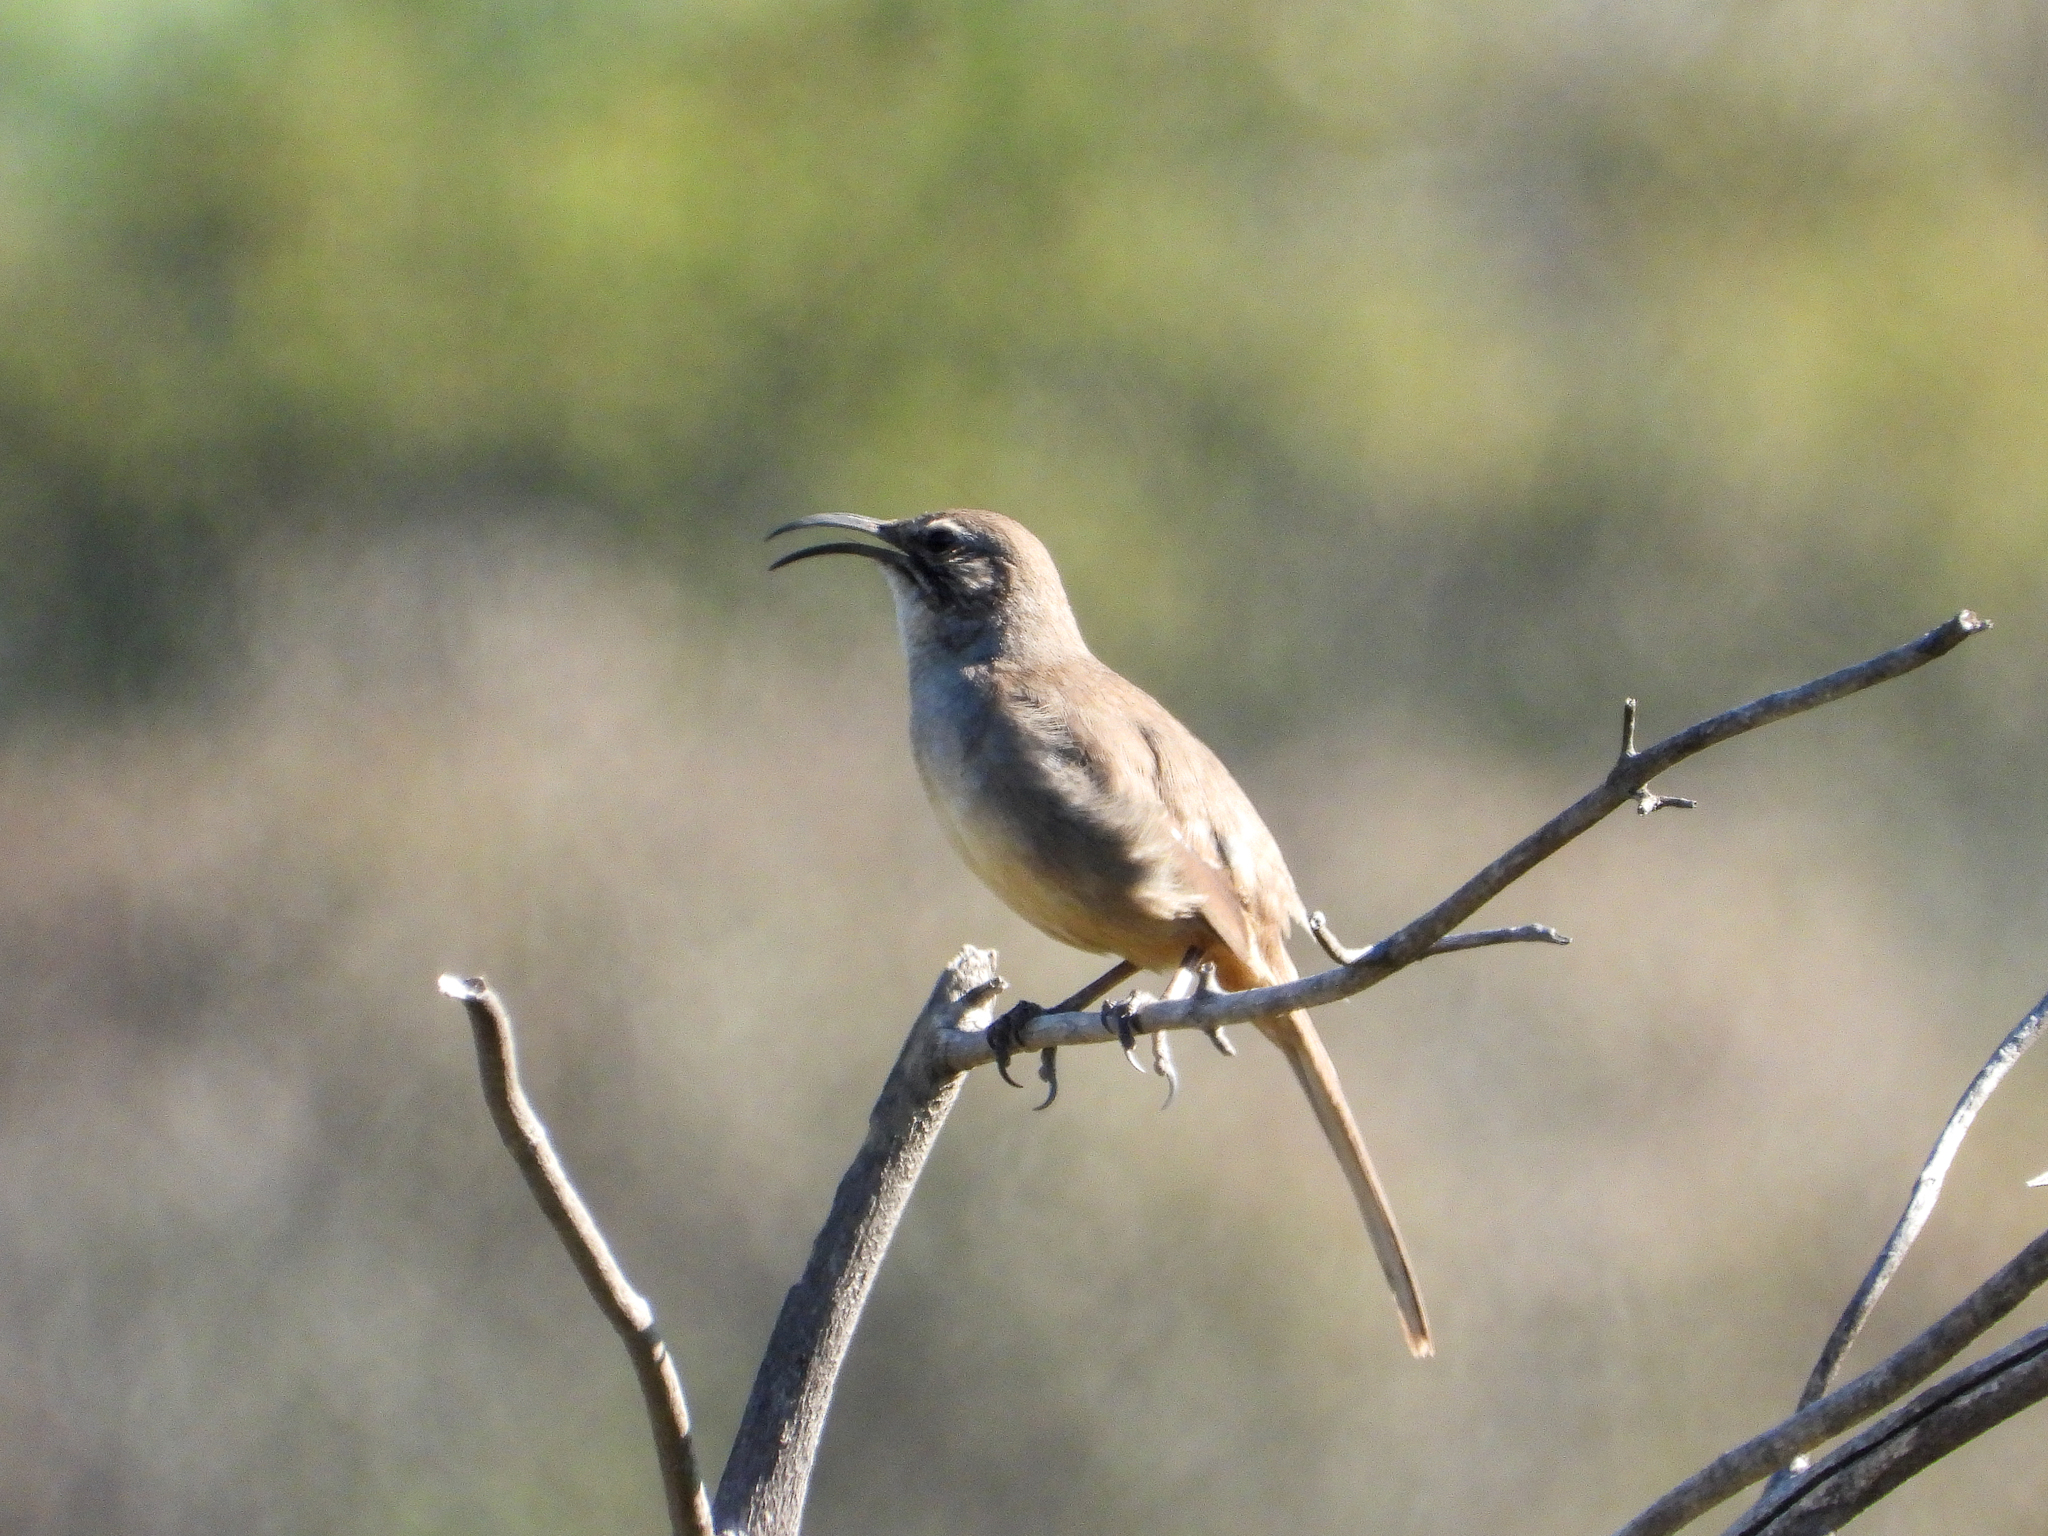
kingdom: Animalia
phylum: Chordata
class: Aves
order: Passeriformes
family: Mimidae
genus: Toxostoma
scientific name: Toxostoma redivivum
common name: California thrasher
